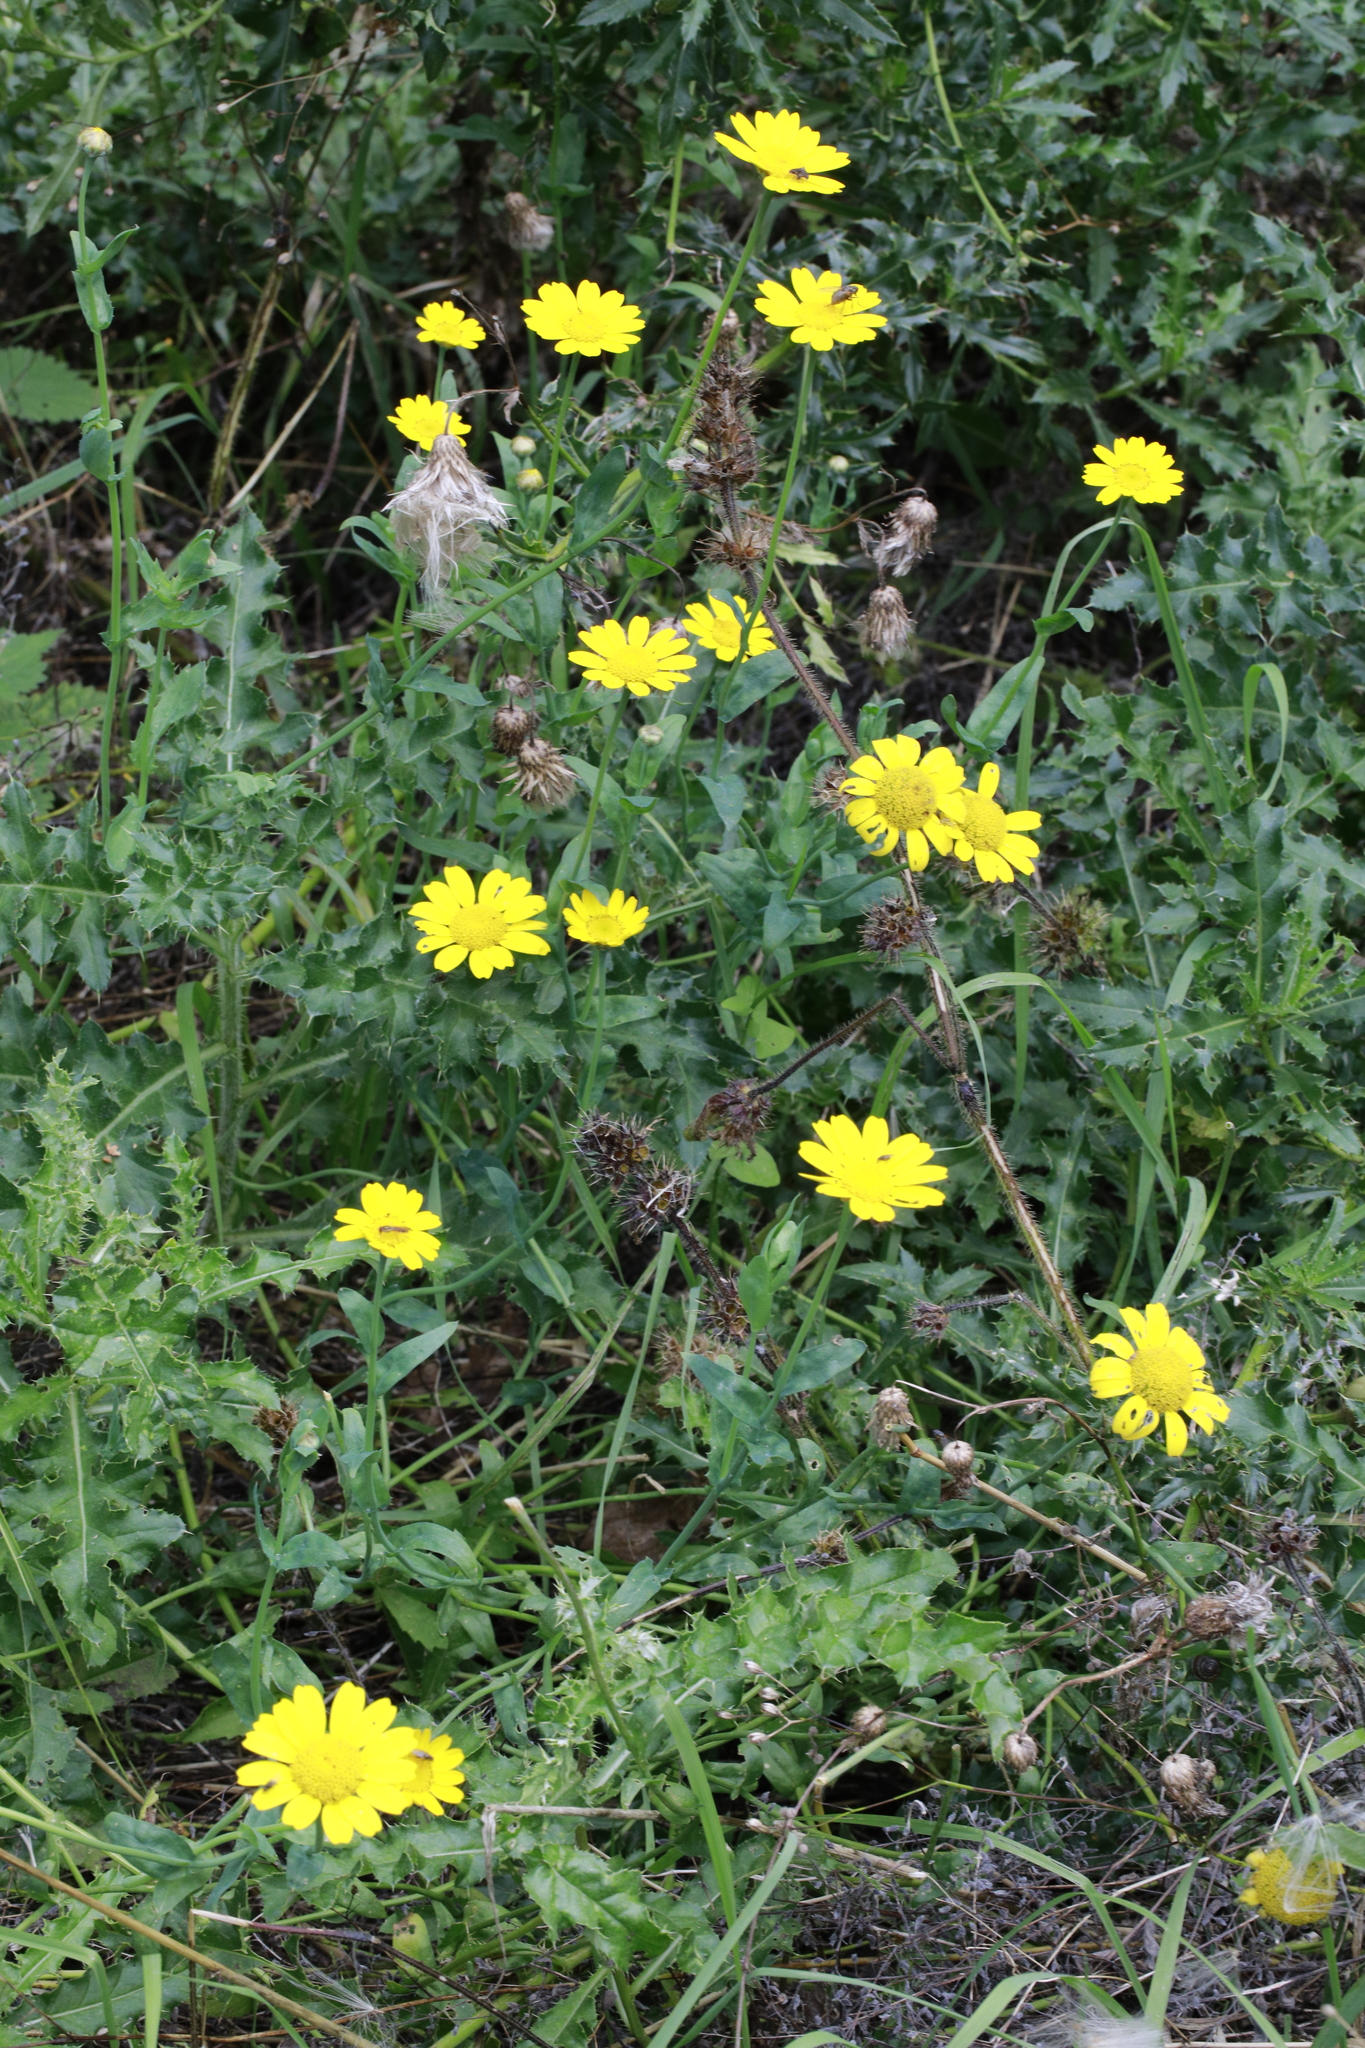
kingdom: Plantae
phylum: Tracheophyta
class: Magnoliopsida
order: Asterales
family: Asteraceae
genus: Glebionis
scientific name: Glebionis segetum
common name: Corndaisy
